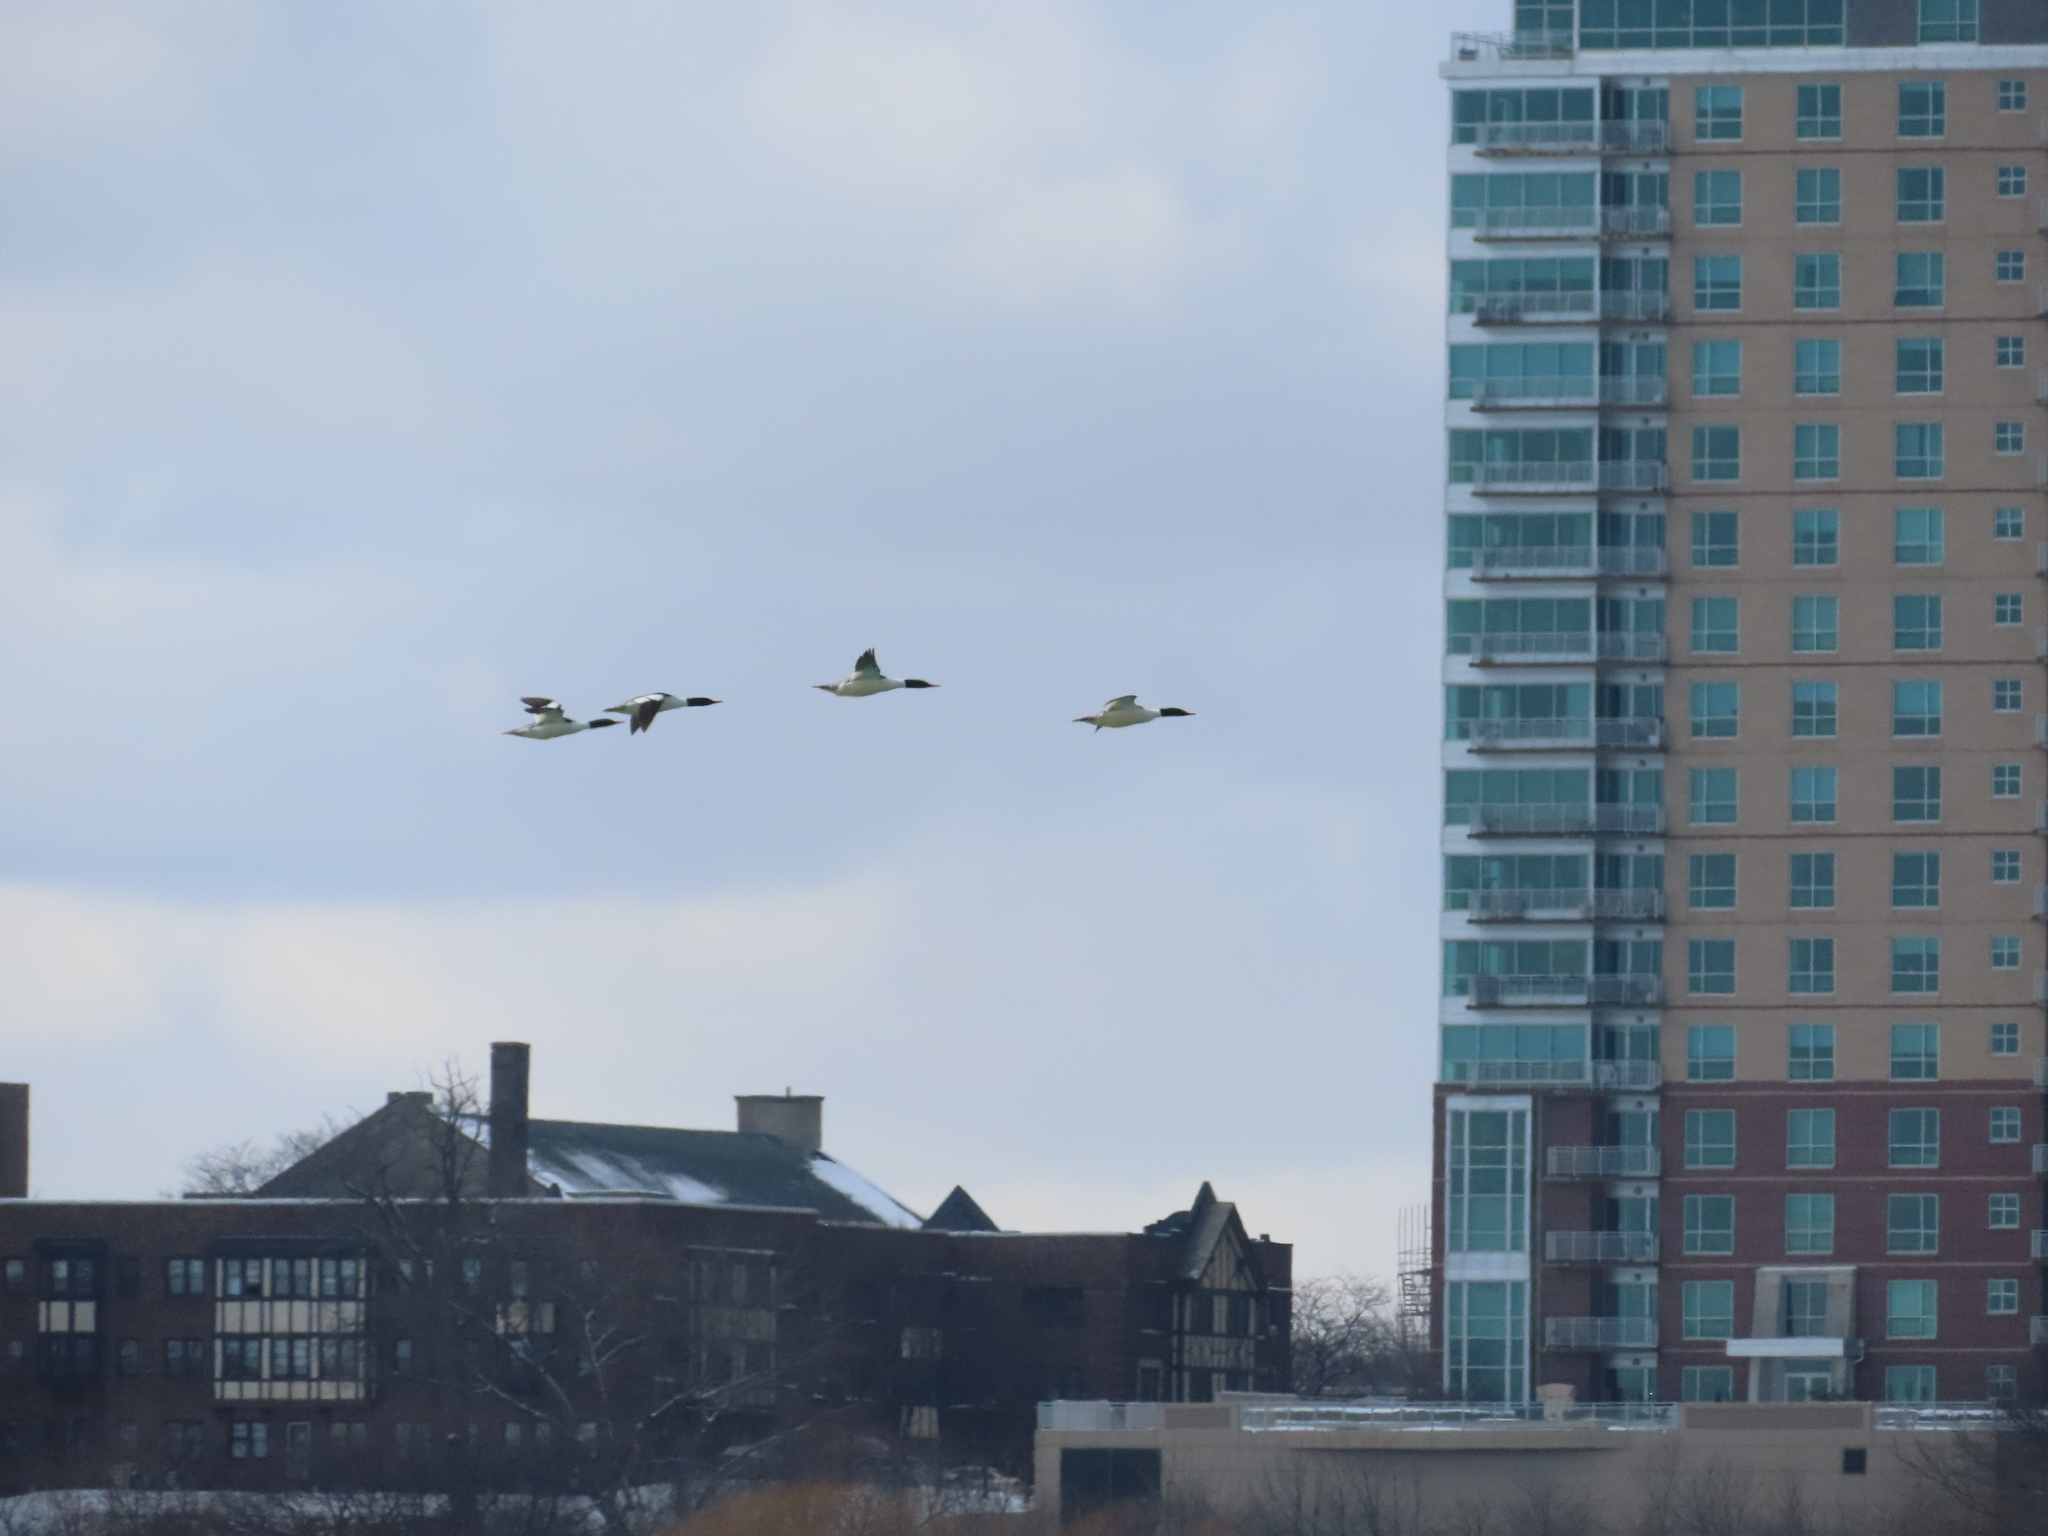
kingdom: Animalia
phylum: Chordata
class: Aves
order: Anseriformes
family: Anatidae
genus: Mergus
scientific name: Mergus merganser
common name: Common merganser
